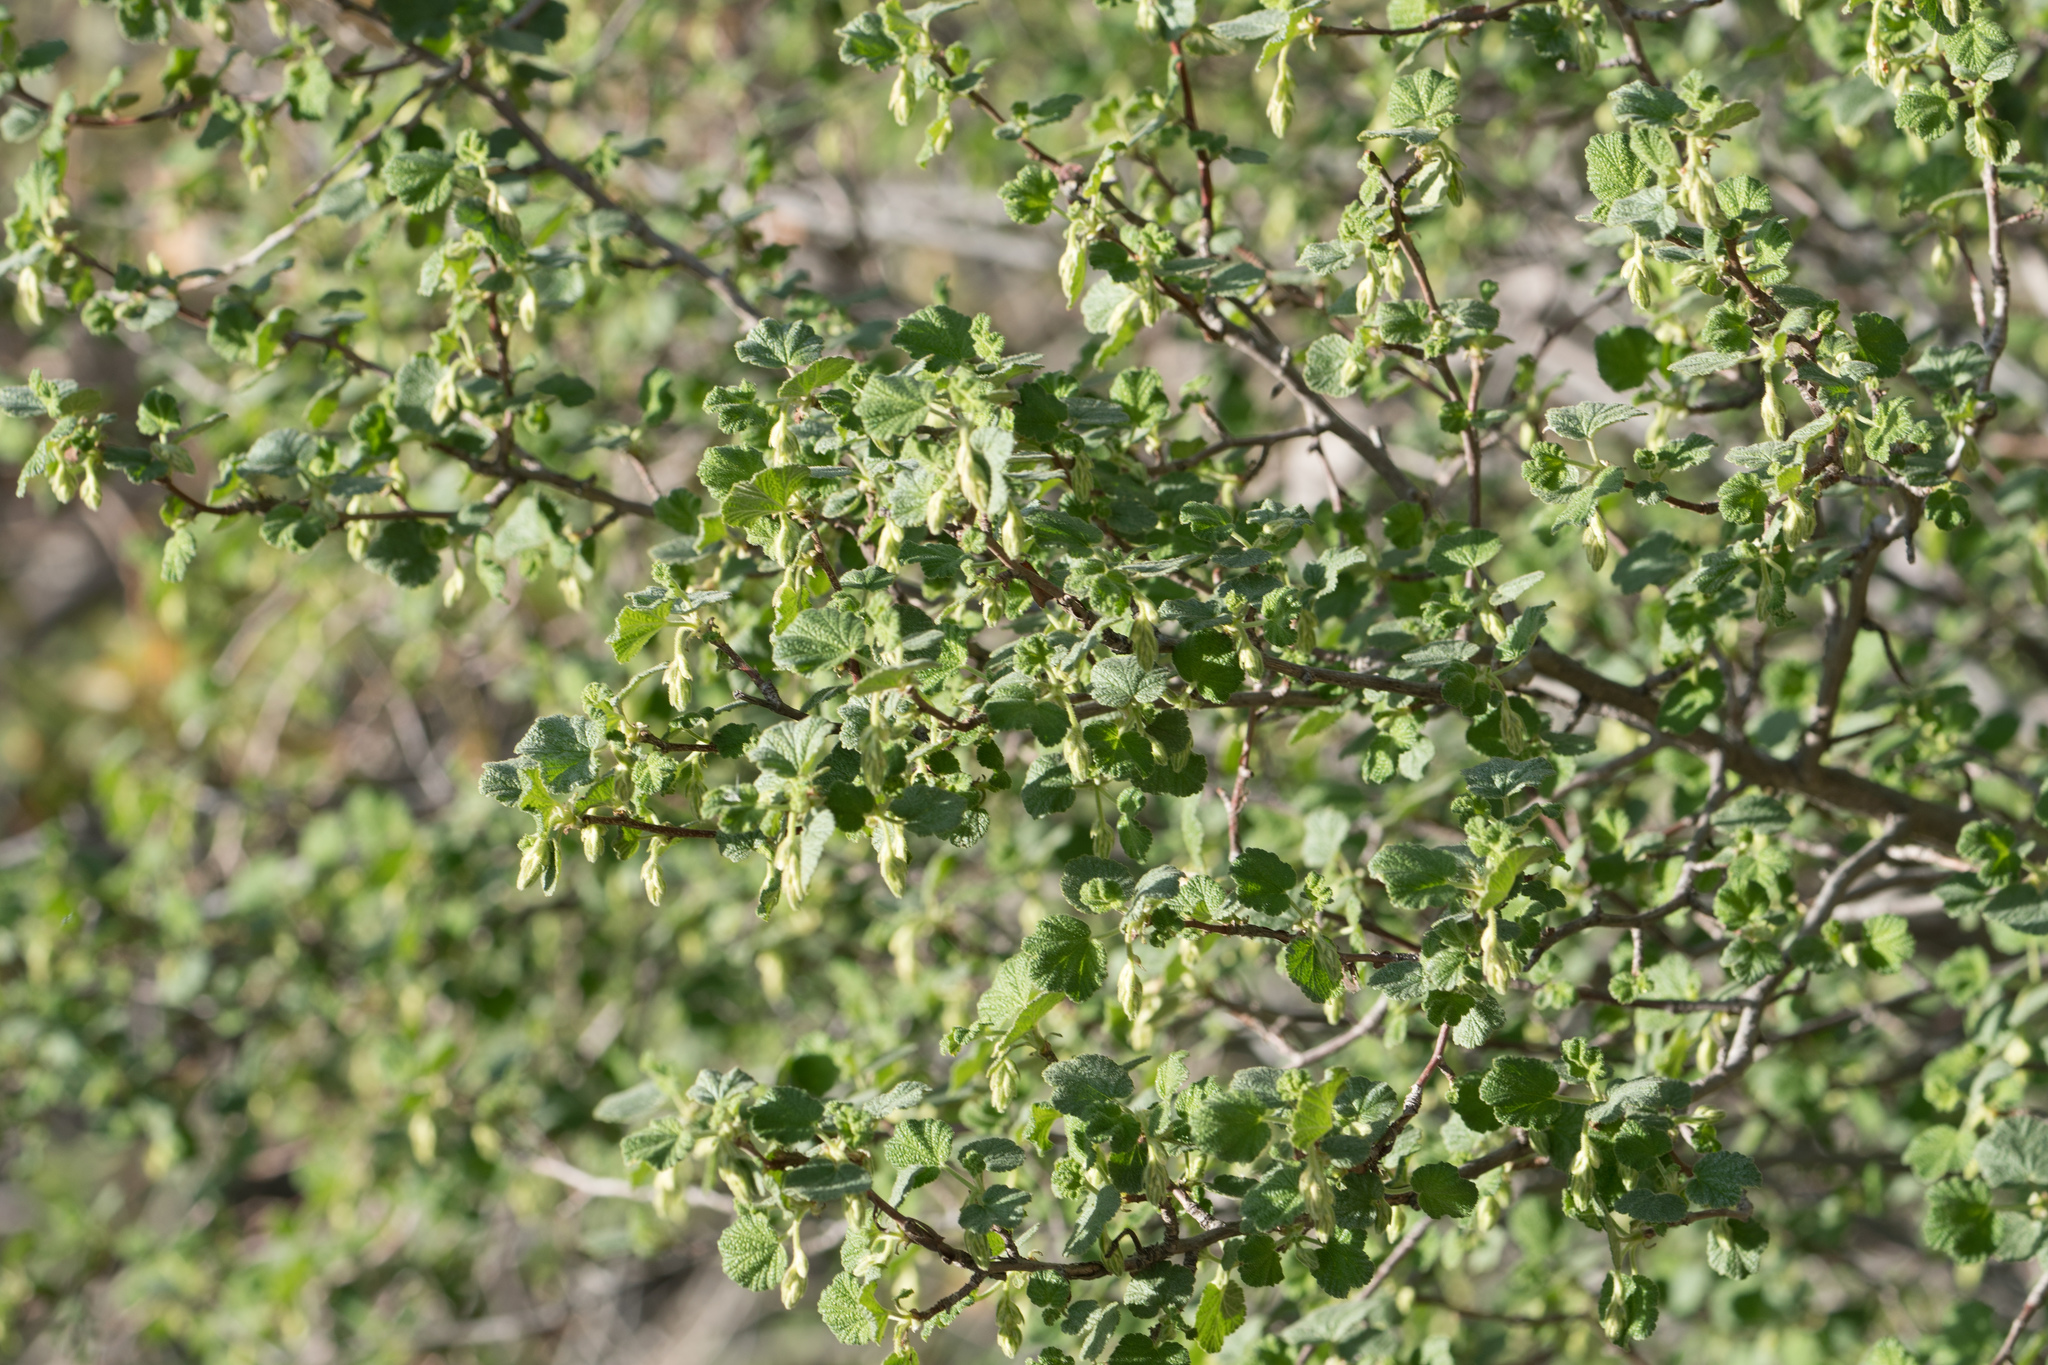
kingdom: Plantae
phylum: Tracheophyta
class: Magnoliopsida
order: Saxifragales
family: Grossulariaceae
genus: Ribes
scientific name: Ribes indecorum
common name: White-flower currant
